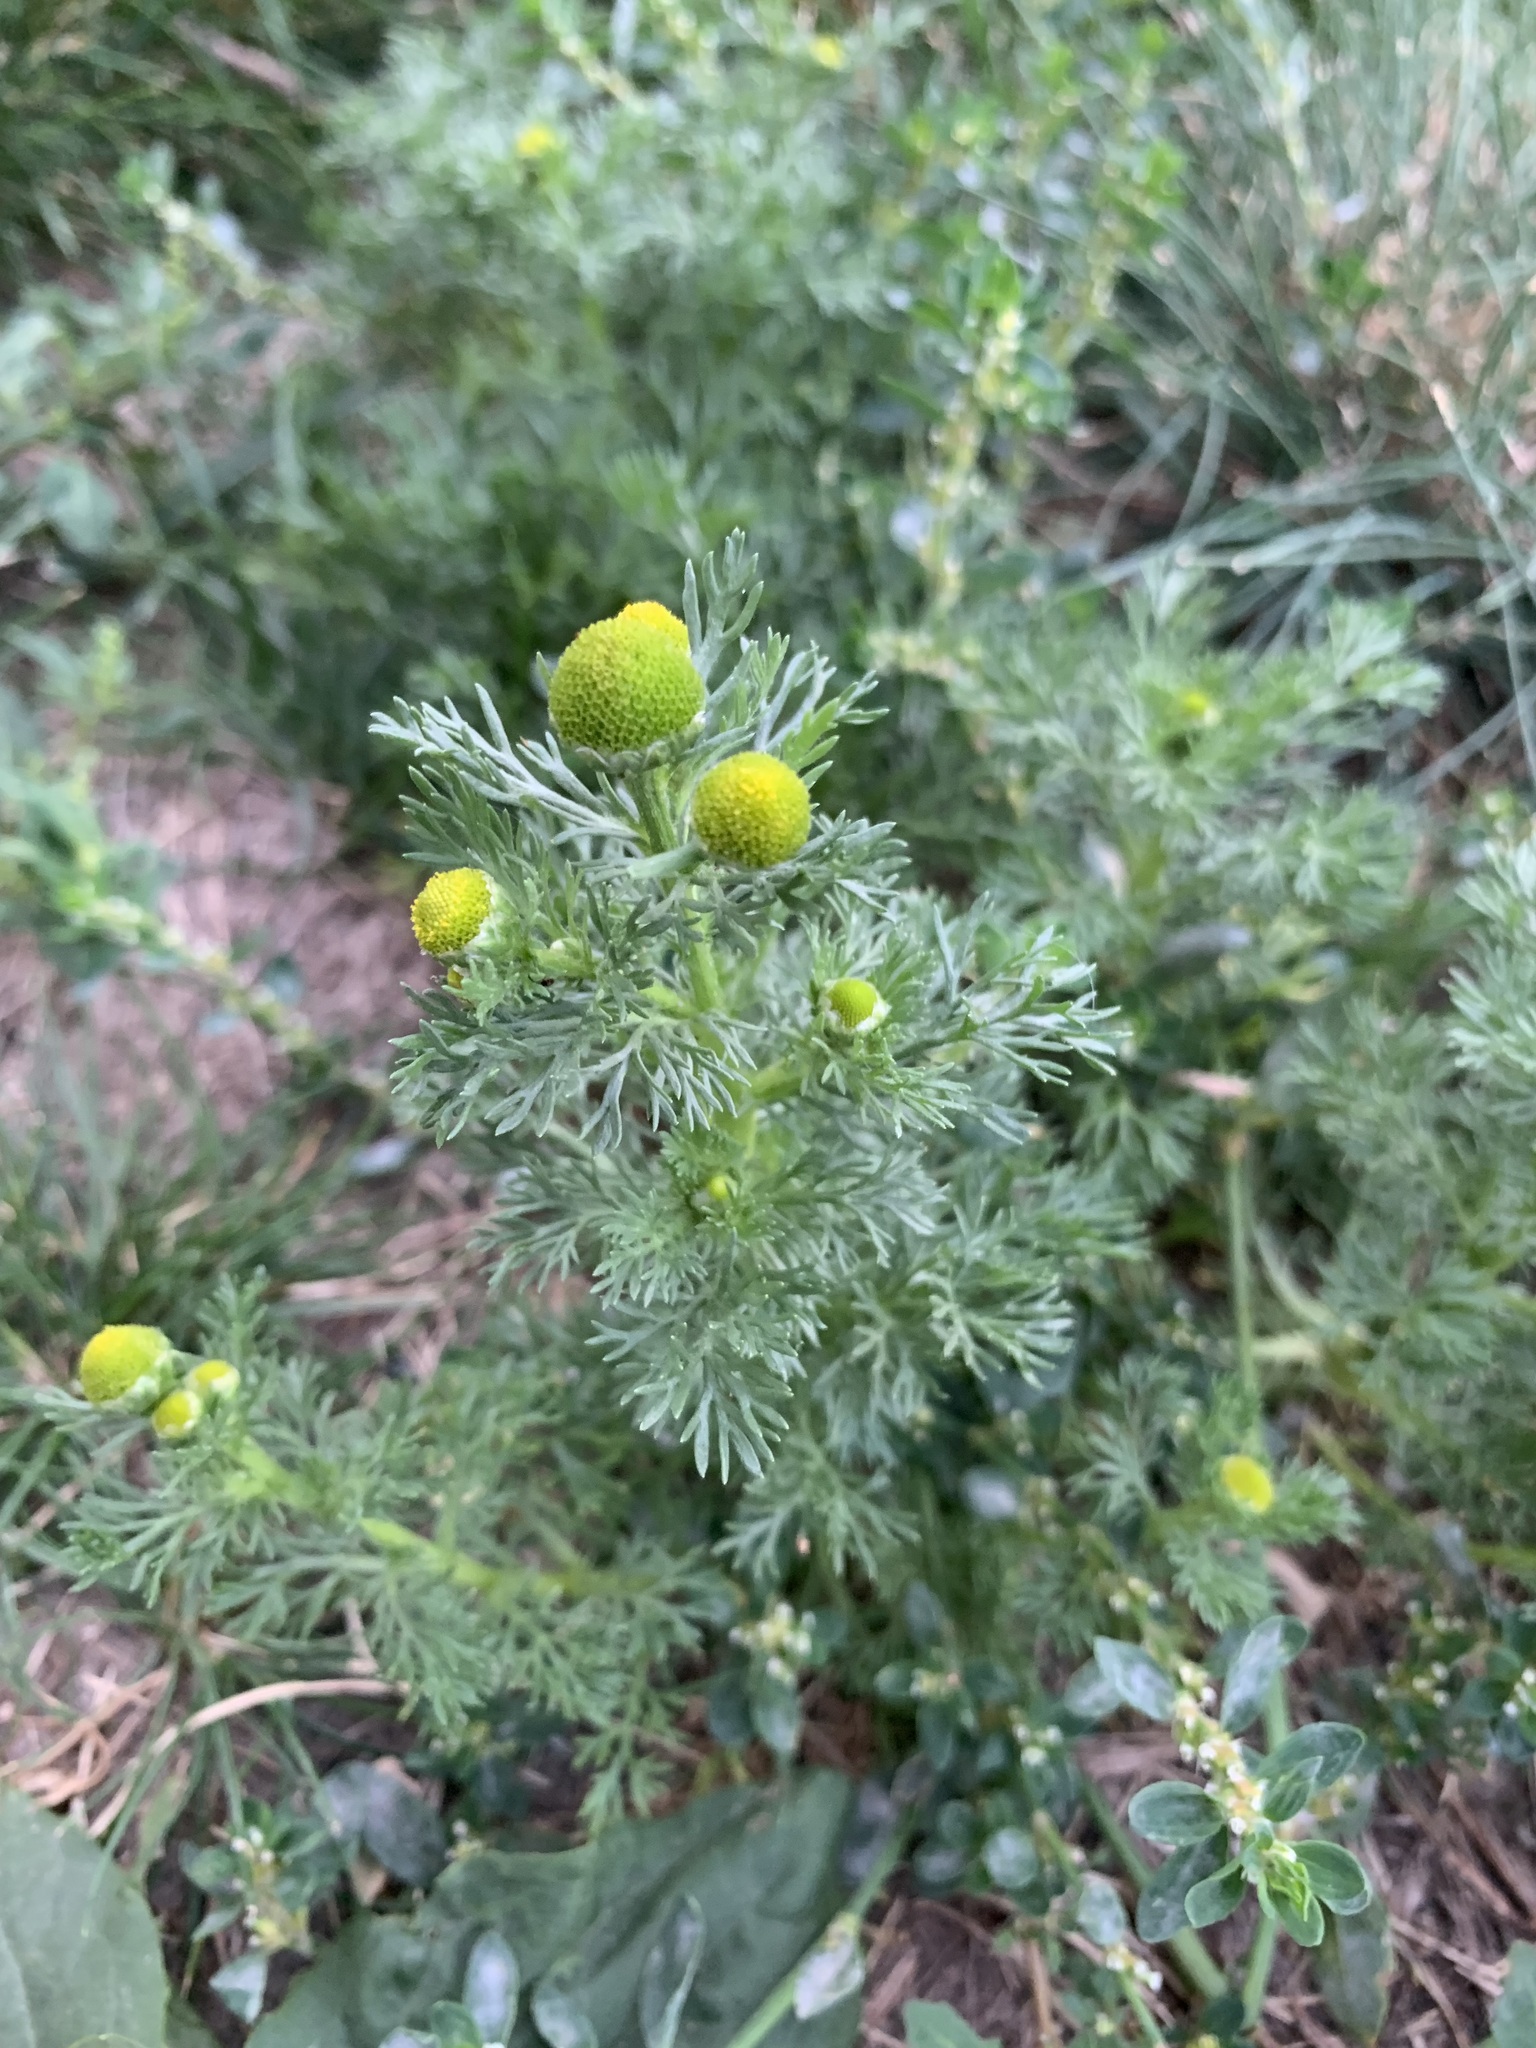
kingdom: Plantae
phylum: Tracheophyta
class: Magnoliopsida
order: Asterales
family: Asteraceae
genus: Matricaria
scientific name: Matricaria discoidea
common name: Disc mayweed
